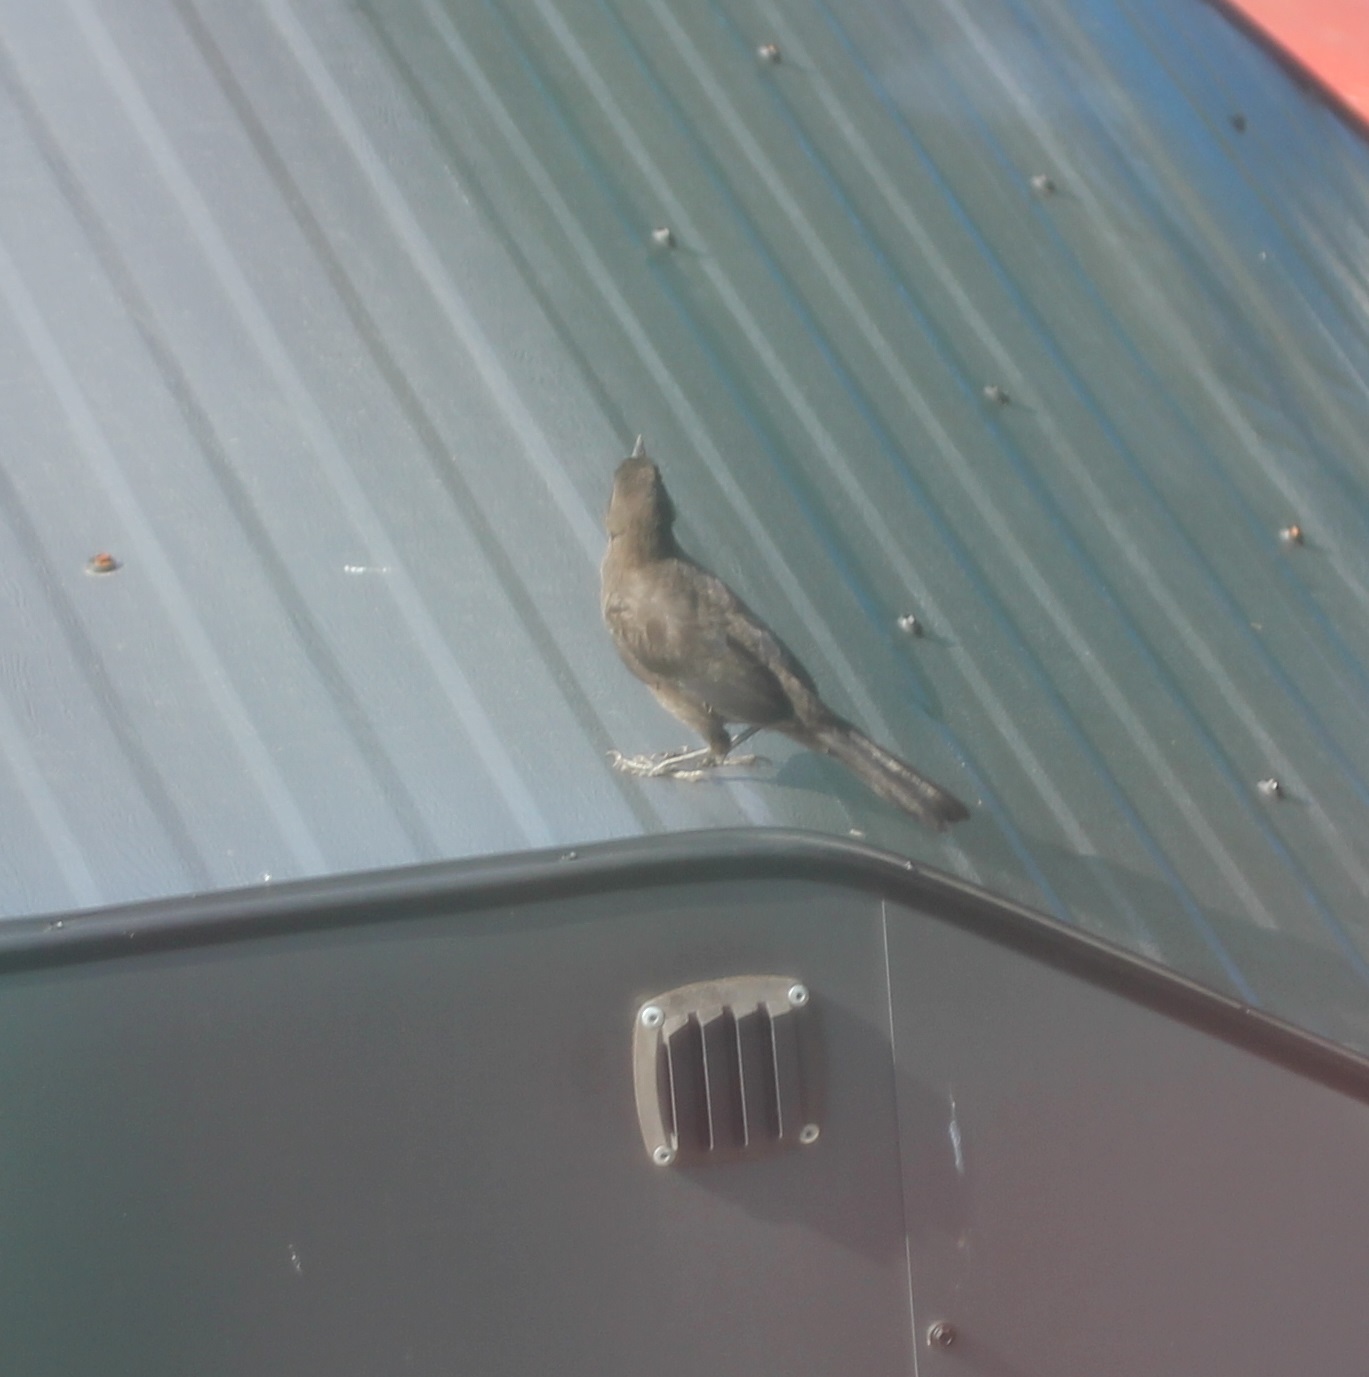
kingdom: Animalia
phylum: Chordata
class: Aves
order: Passeriformes
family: Icteridae
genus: Quiscalus
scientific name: Quiscalus quiscula
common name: Common grackle
